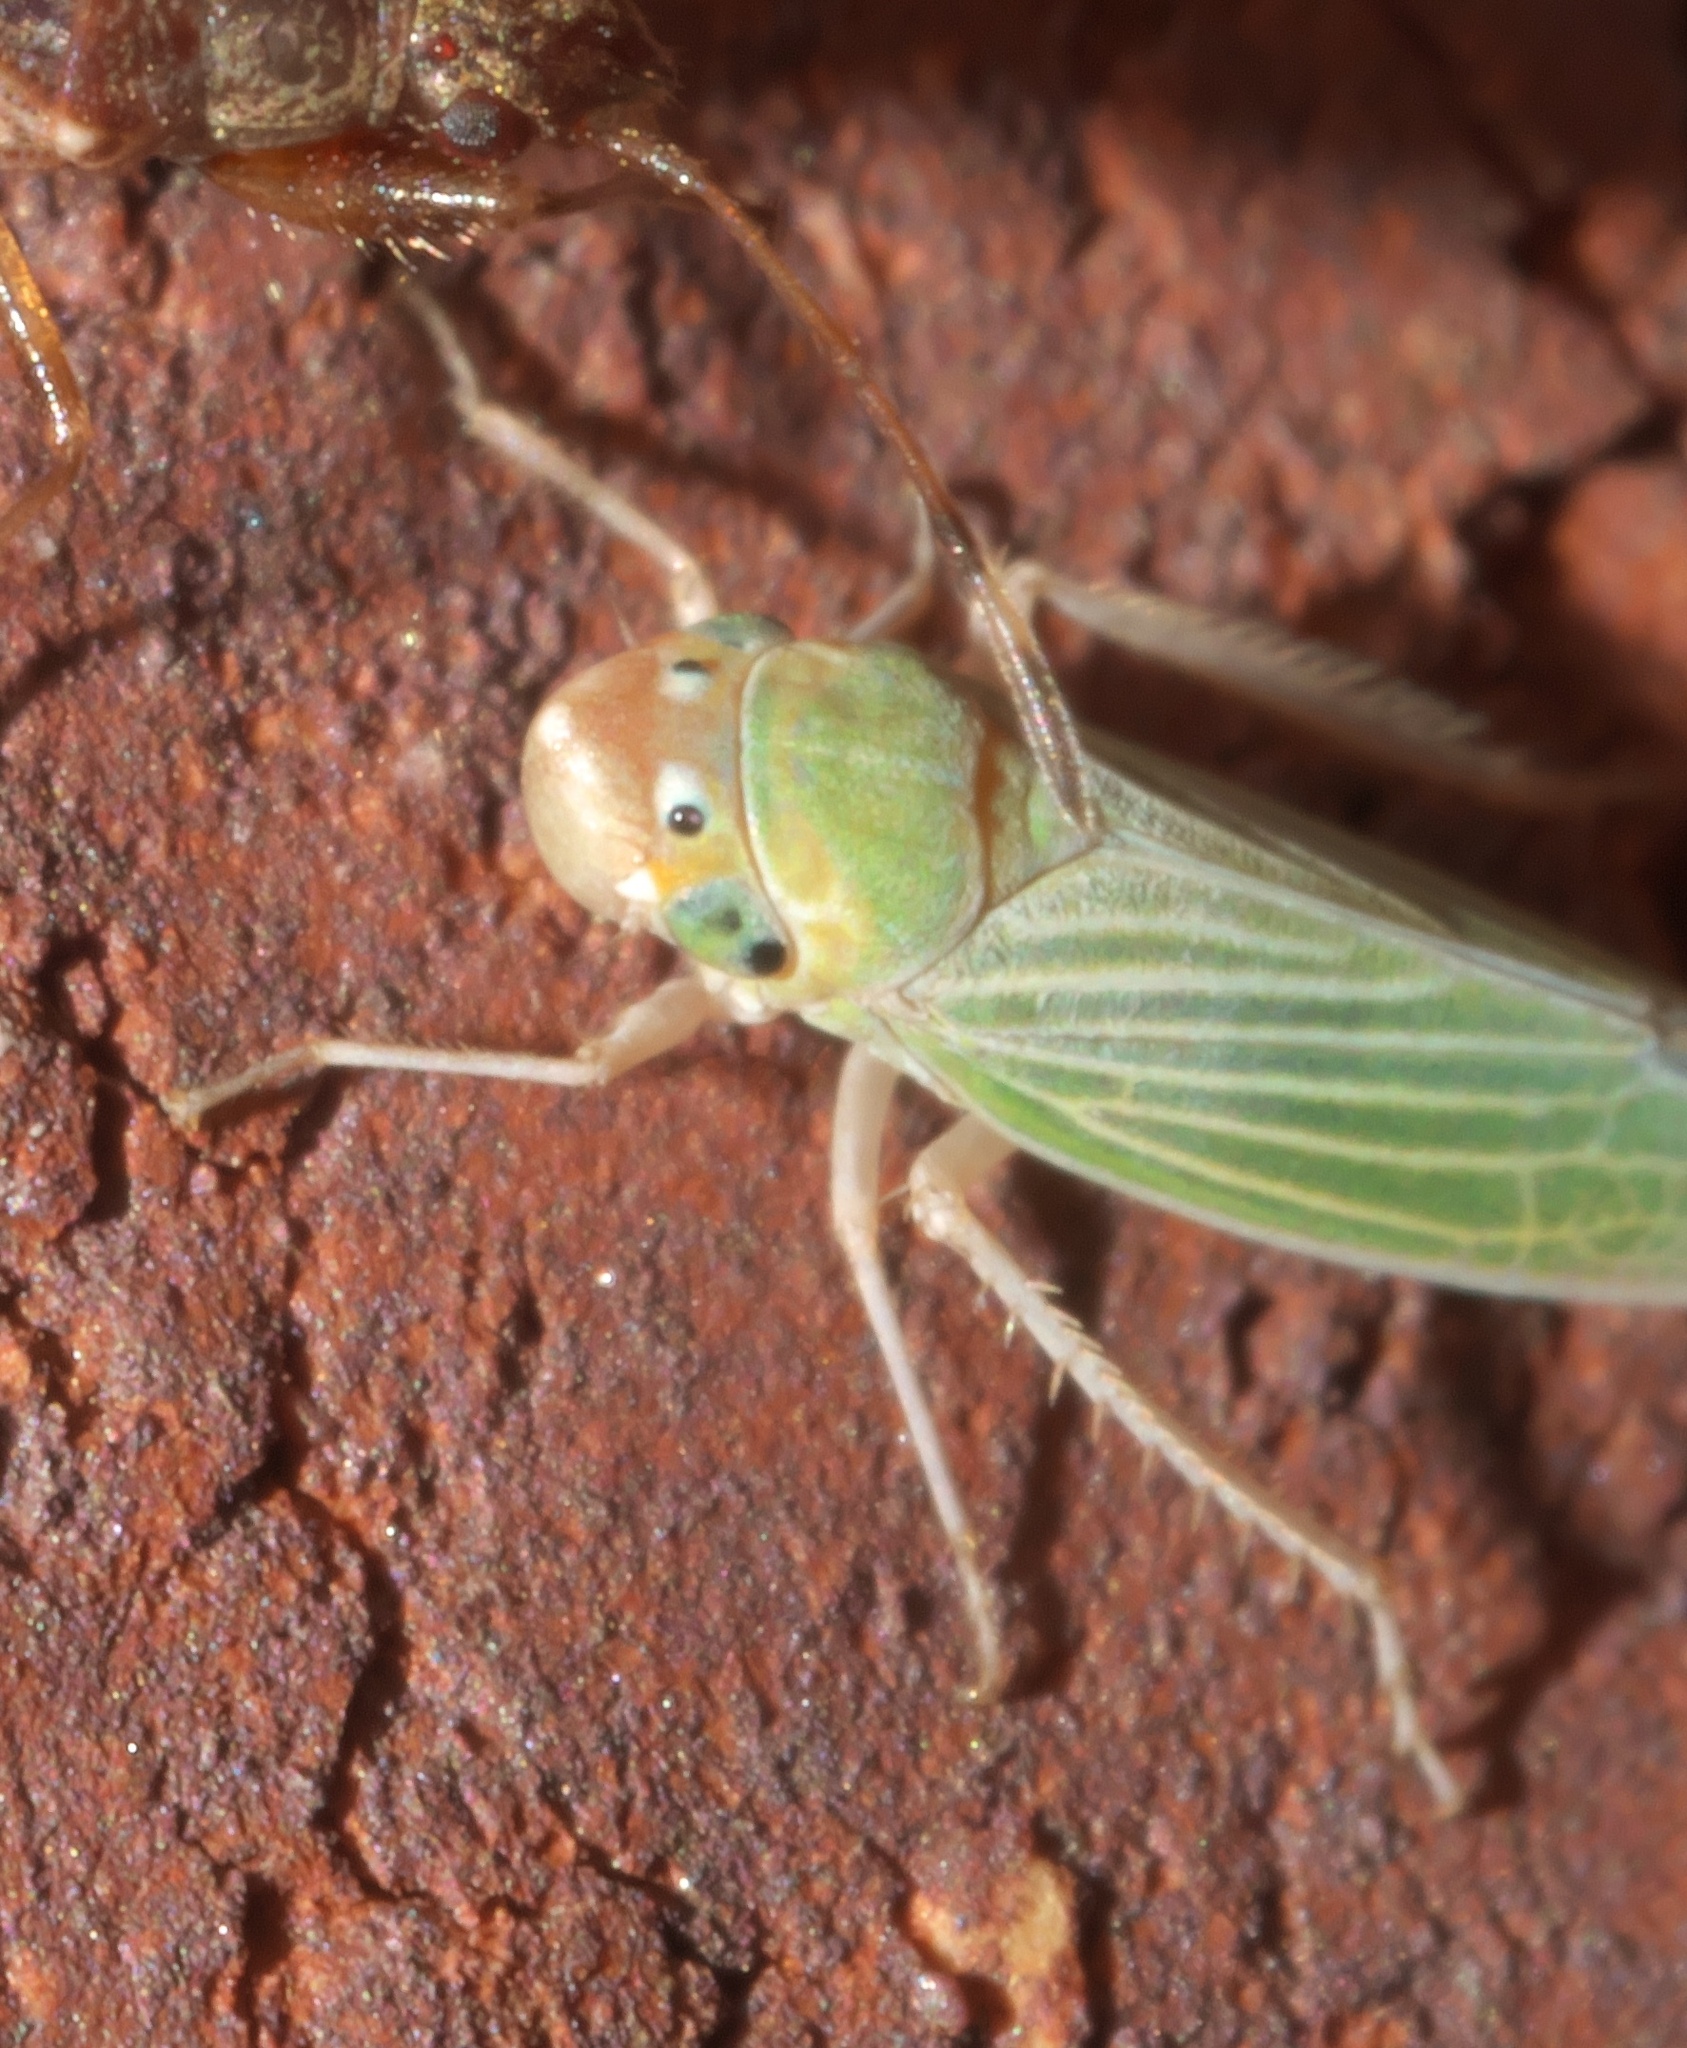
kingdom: Animalia
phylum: Arthropoda
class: Insecta
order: Hemiptera
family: Cicadellidae
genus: Xyphon
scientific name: Xyphon flaviceps
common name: Yellowheaded leafhopper
